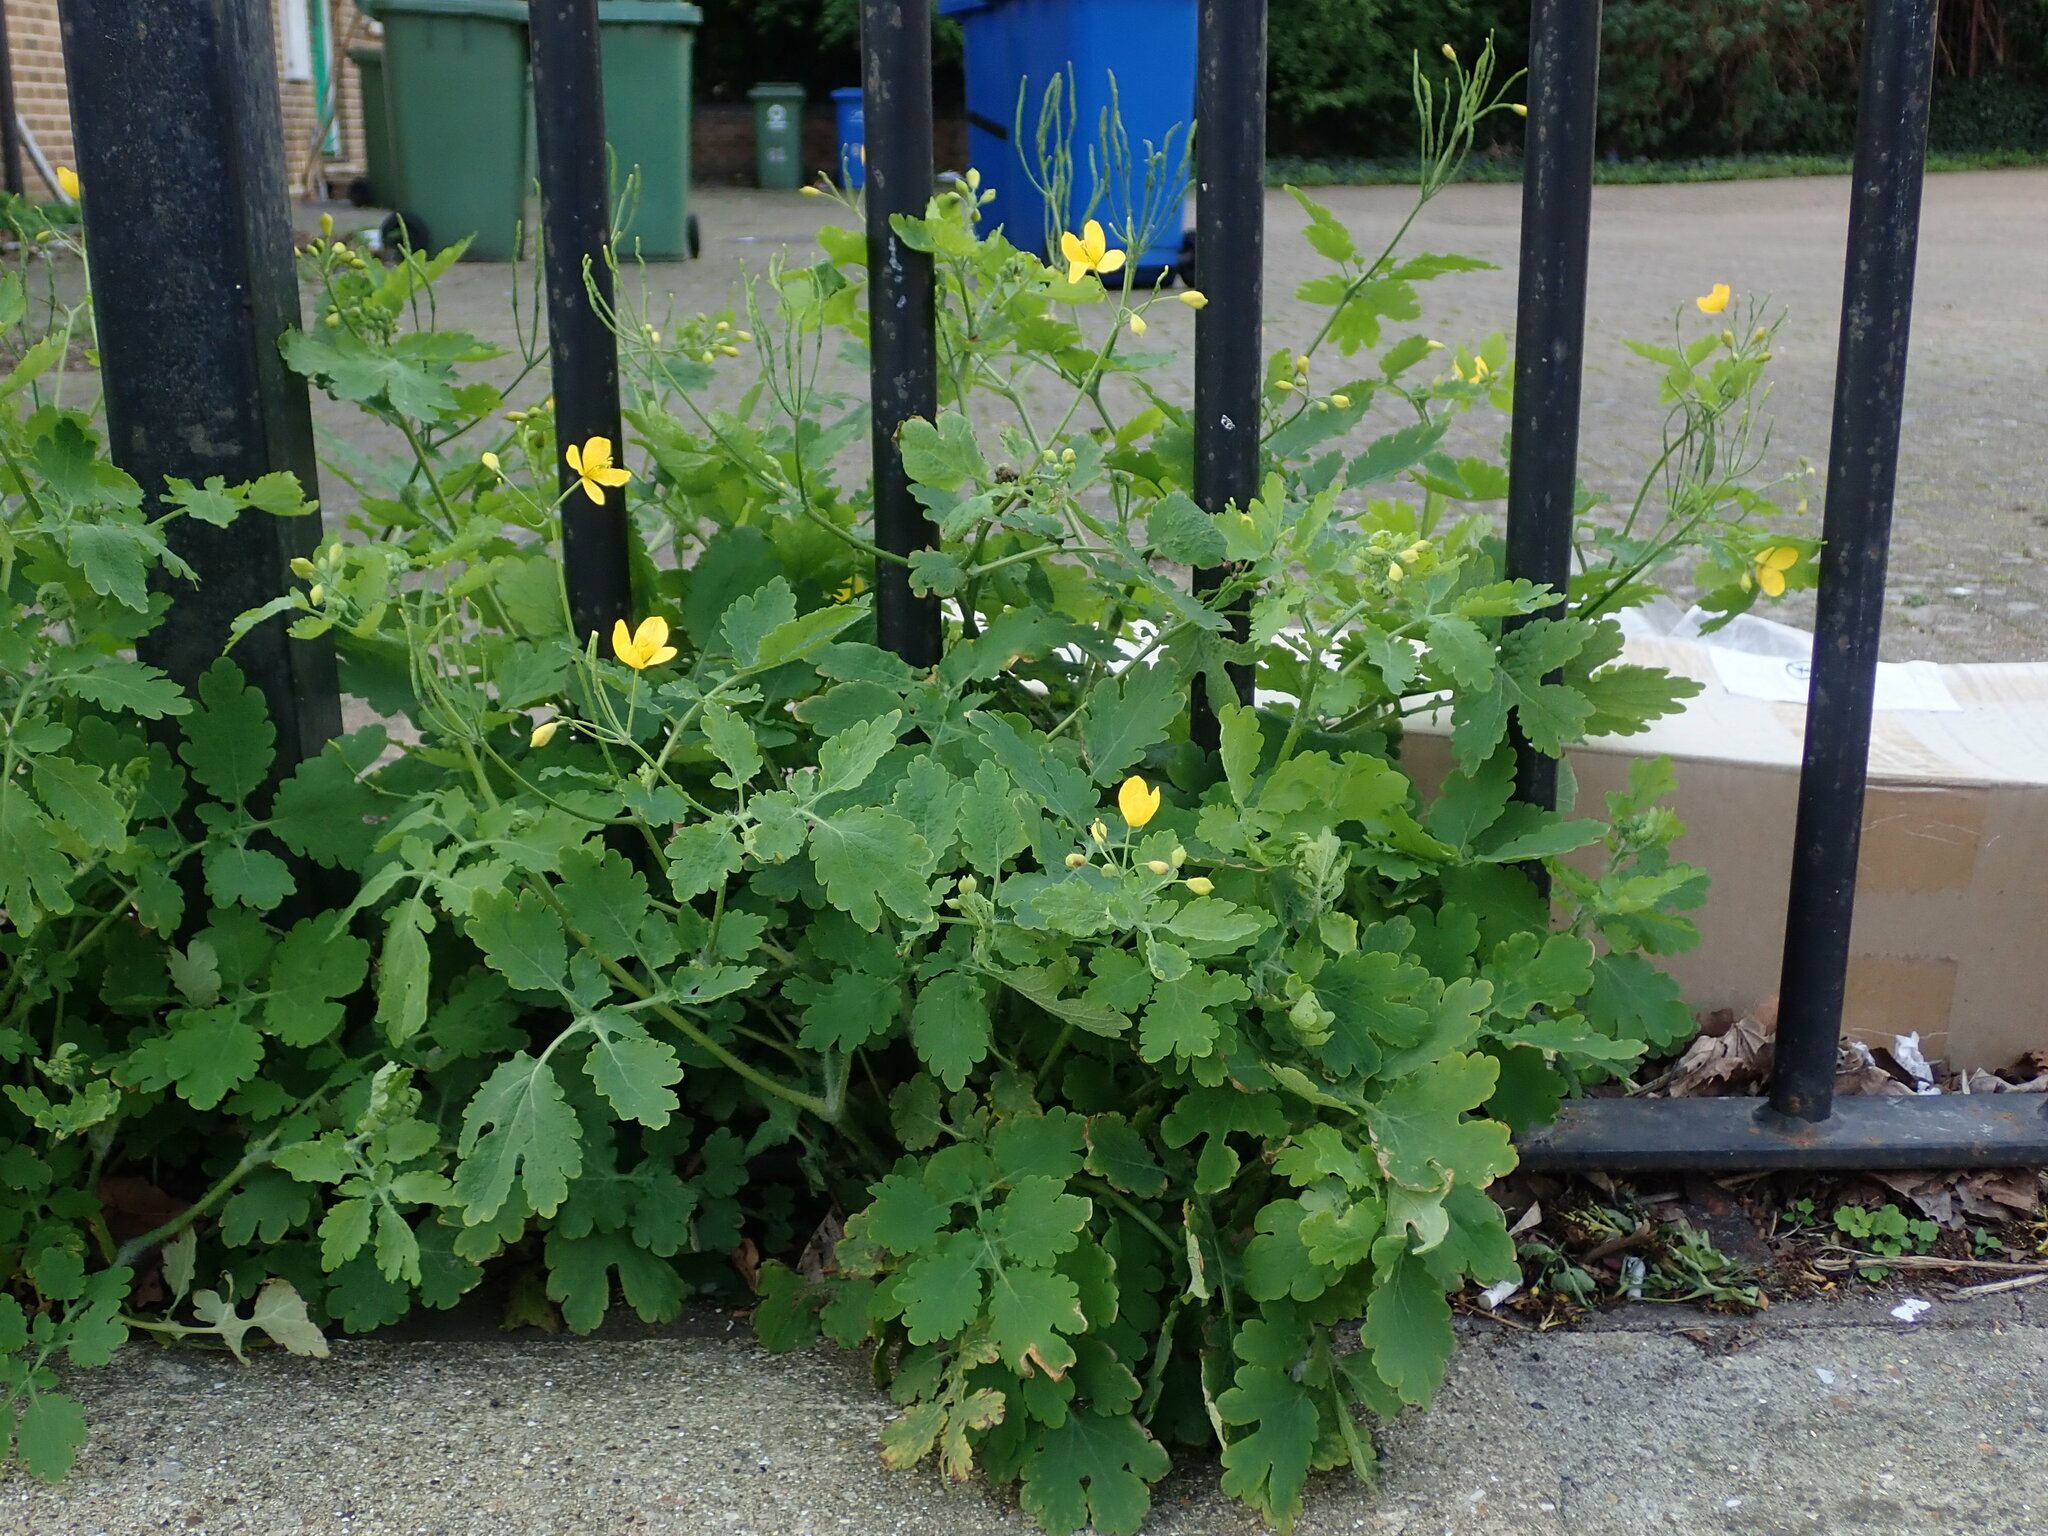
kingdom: Plantae
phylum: Tracheophyta
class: Magnoliopsida
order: Ranunculales
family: Papaveraceae
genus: Chelidonium
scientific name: Chelidonium majus
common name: Greater celandine
